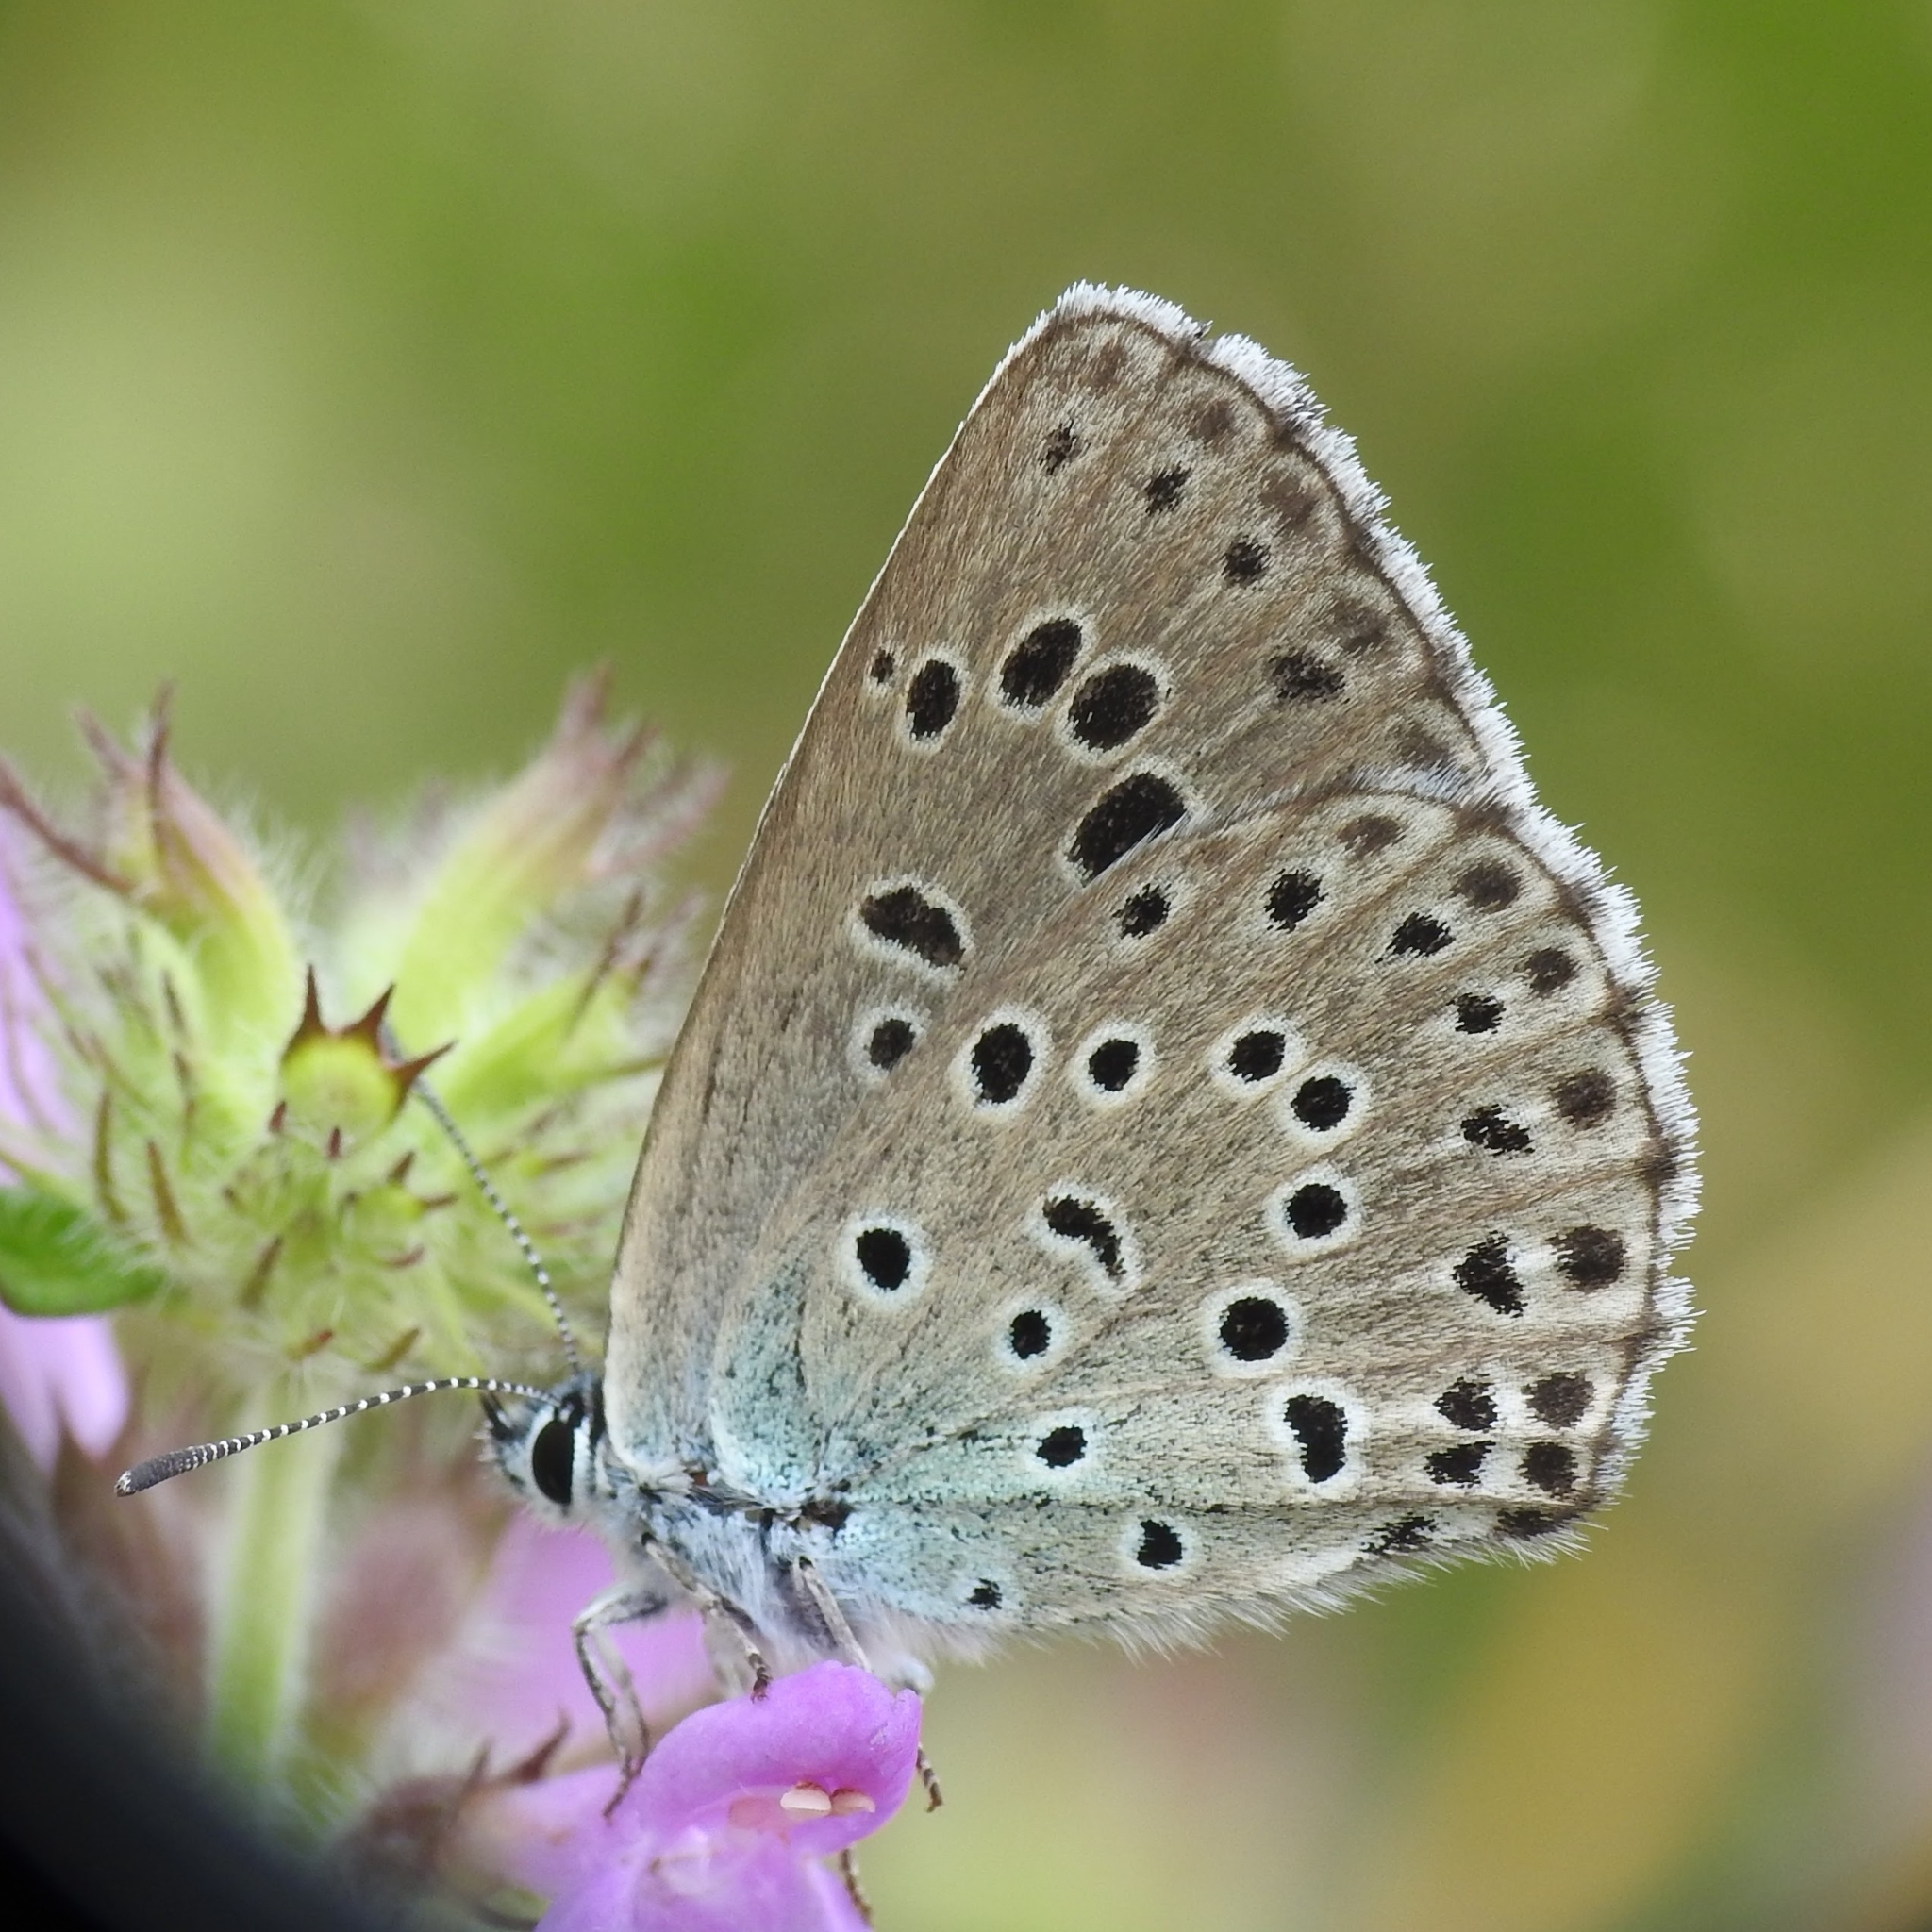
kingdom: Animalia
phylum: Arthropoda
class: Insecta
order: Lepidoptera
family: Lycaenidae
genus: Maculinea
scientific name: Maculinea arion
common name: Large blue
